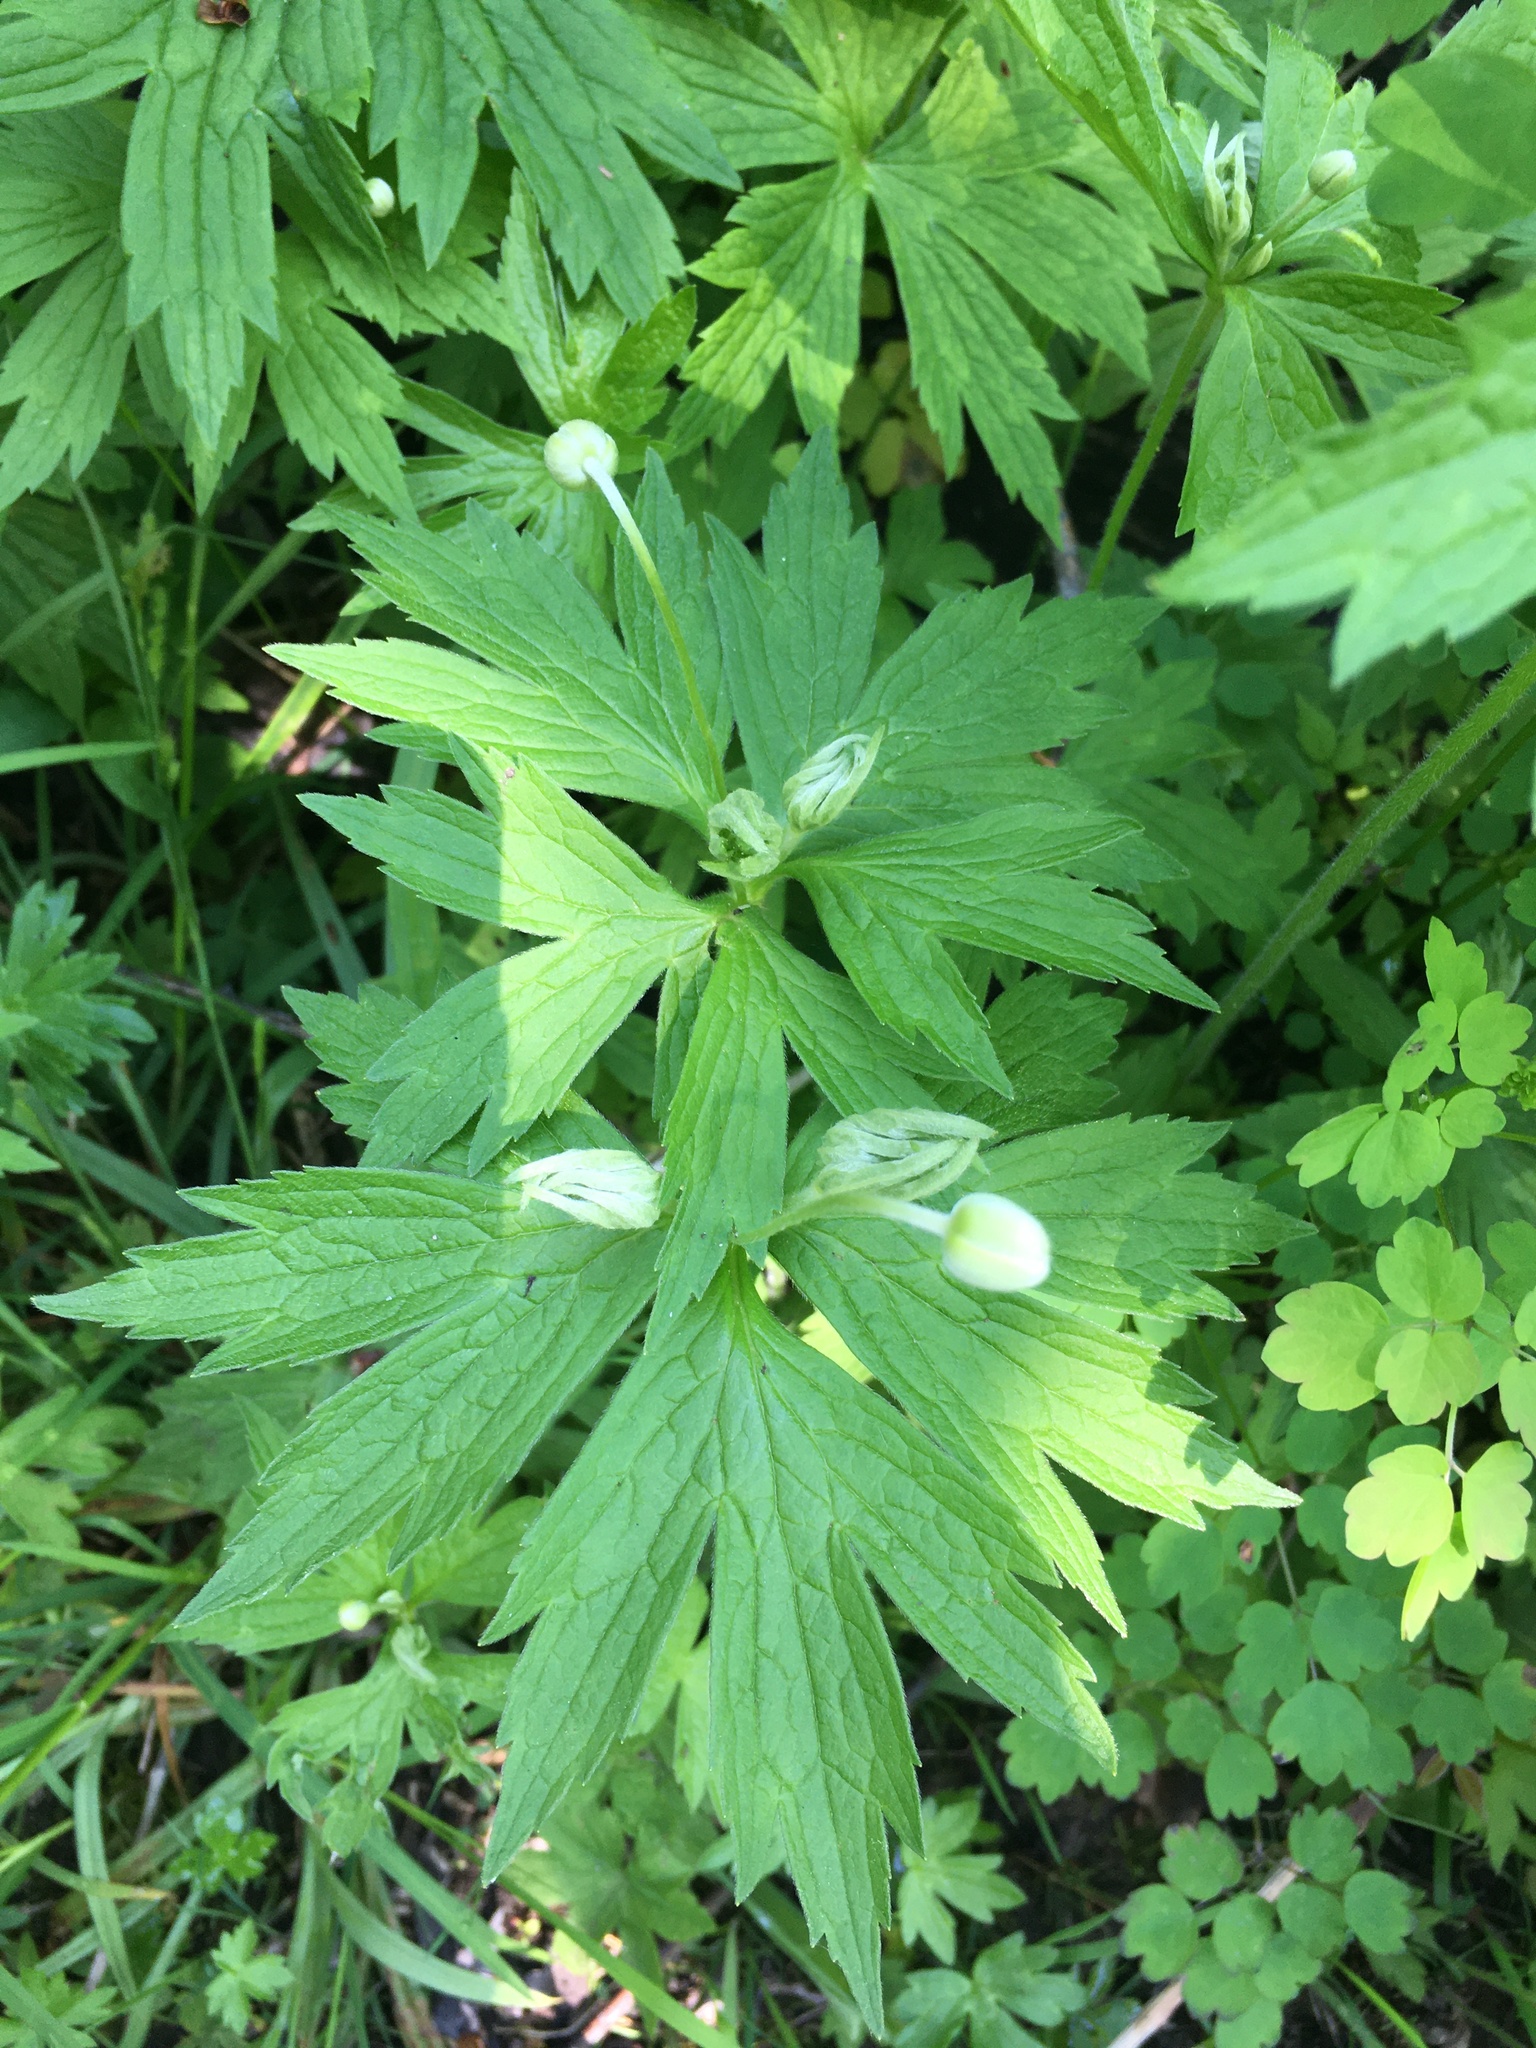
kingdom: Plantae
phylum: Tracheophyta
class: Magnoliopsida
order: Ranunculales
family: Ranunculaceae
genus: Anemonastrum
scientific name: Anemonastrum canadense
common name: Canada anemone
